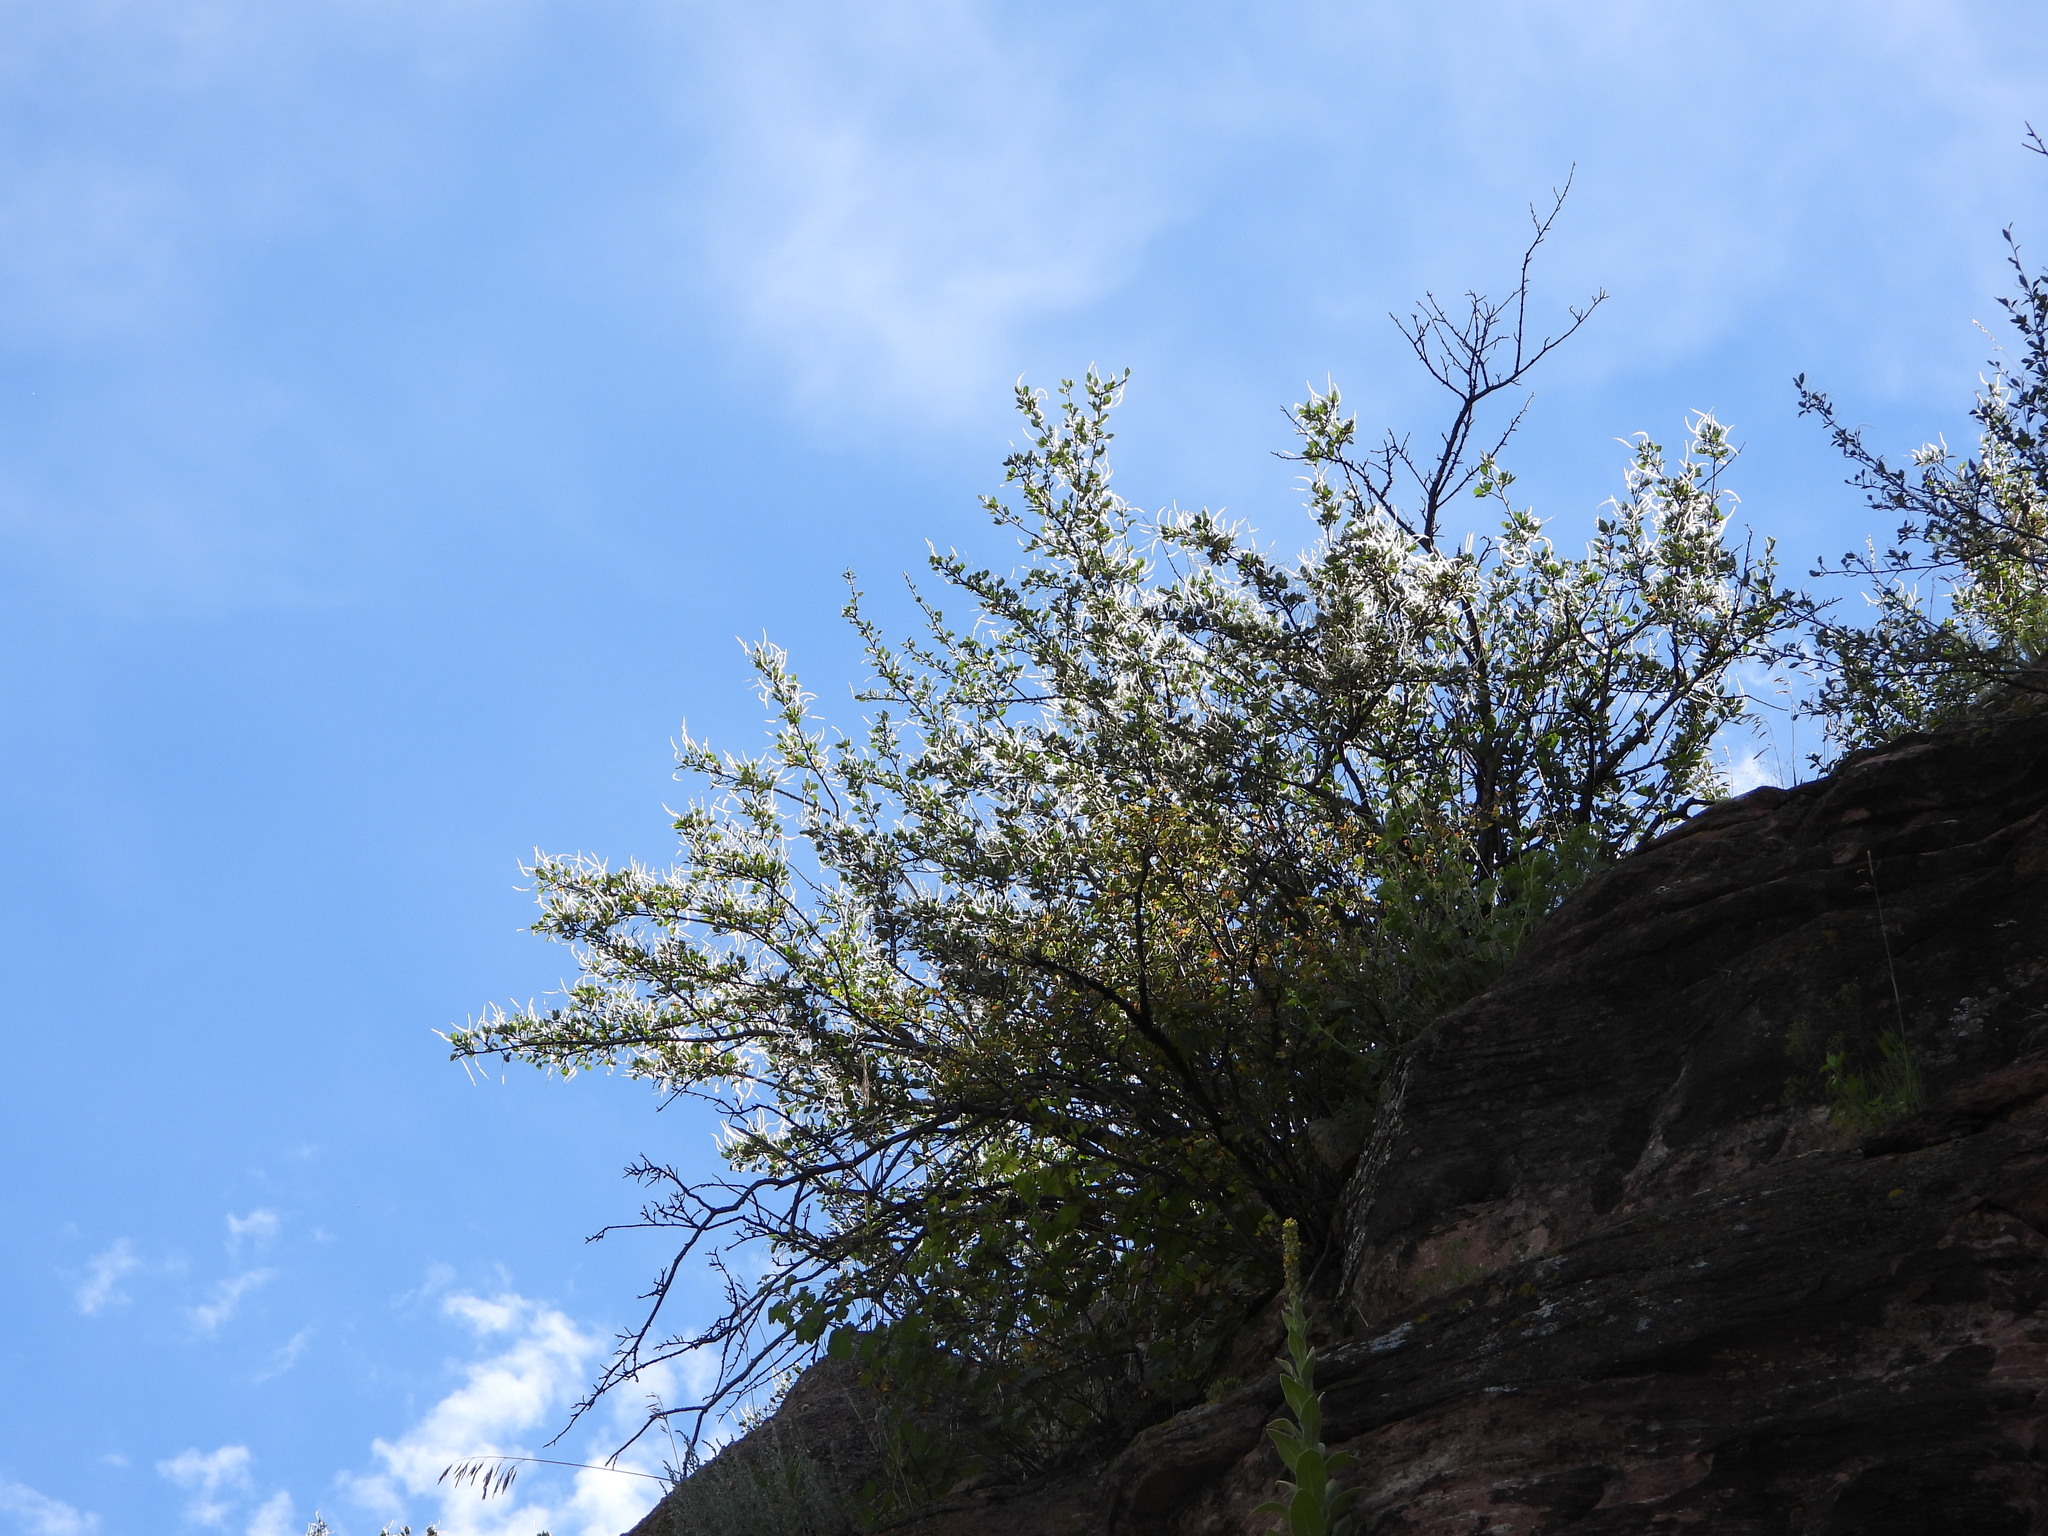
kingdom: Plantae
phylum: Tracheophyta
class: Magnoliopsida
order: Rosales
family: Rosaceae
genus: Cercocarpus
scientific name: Cercocarpus montanus
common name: Alder-leaf cercocarpus
